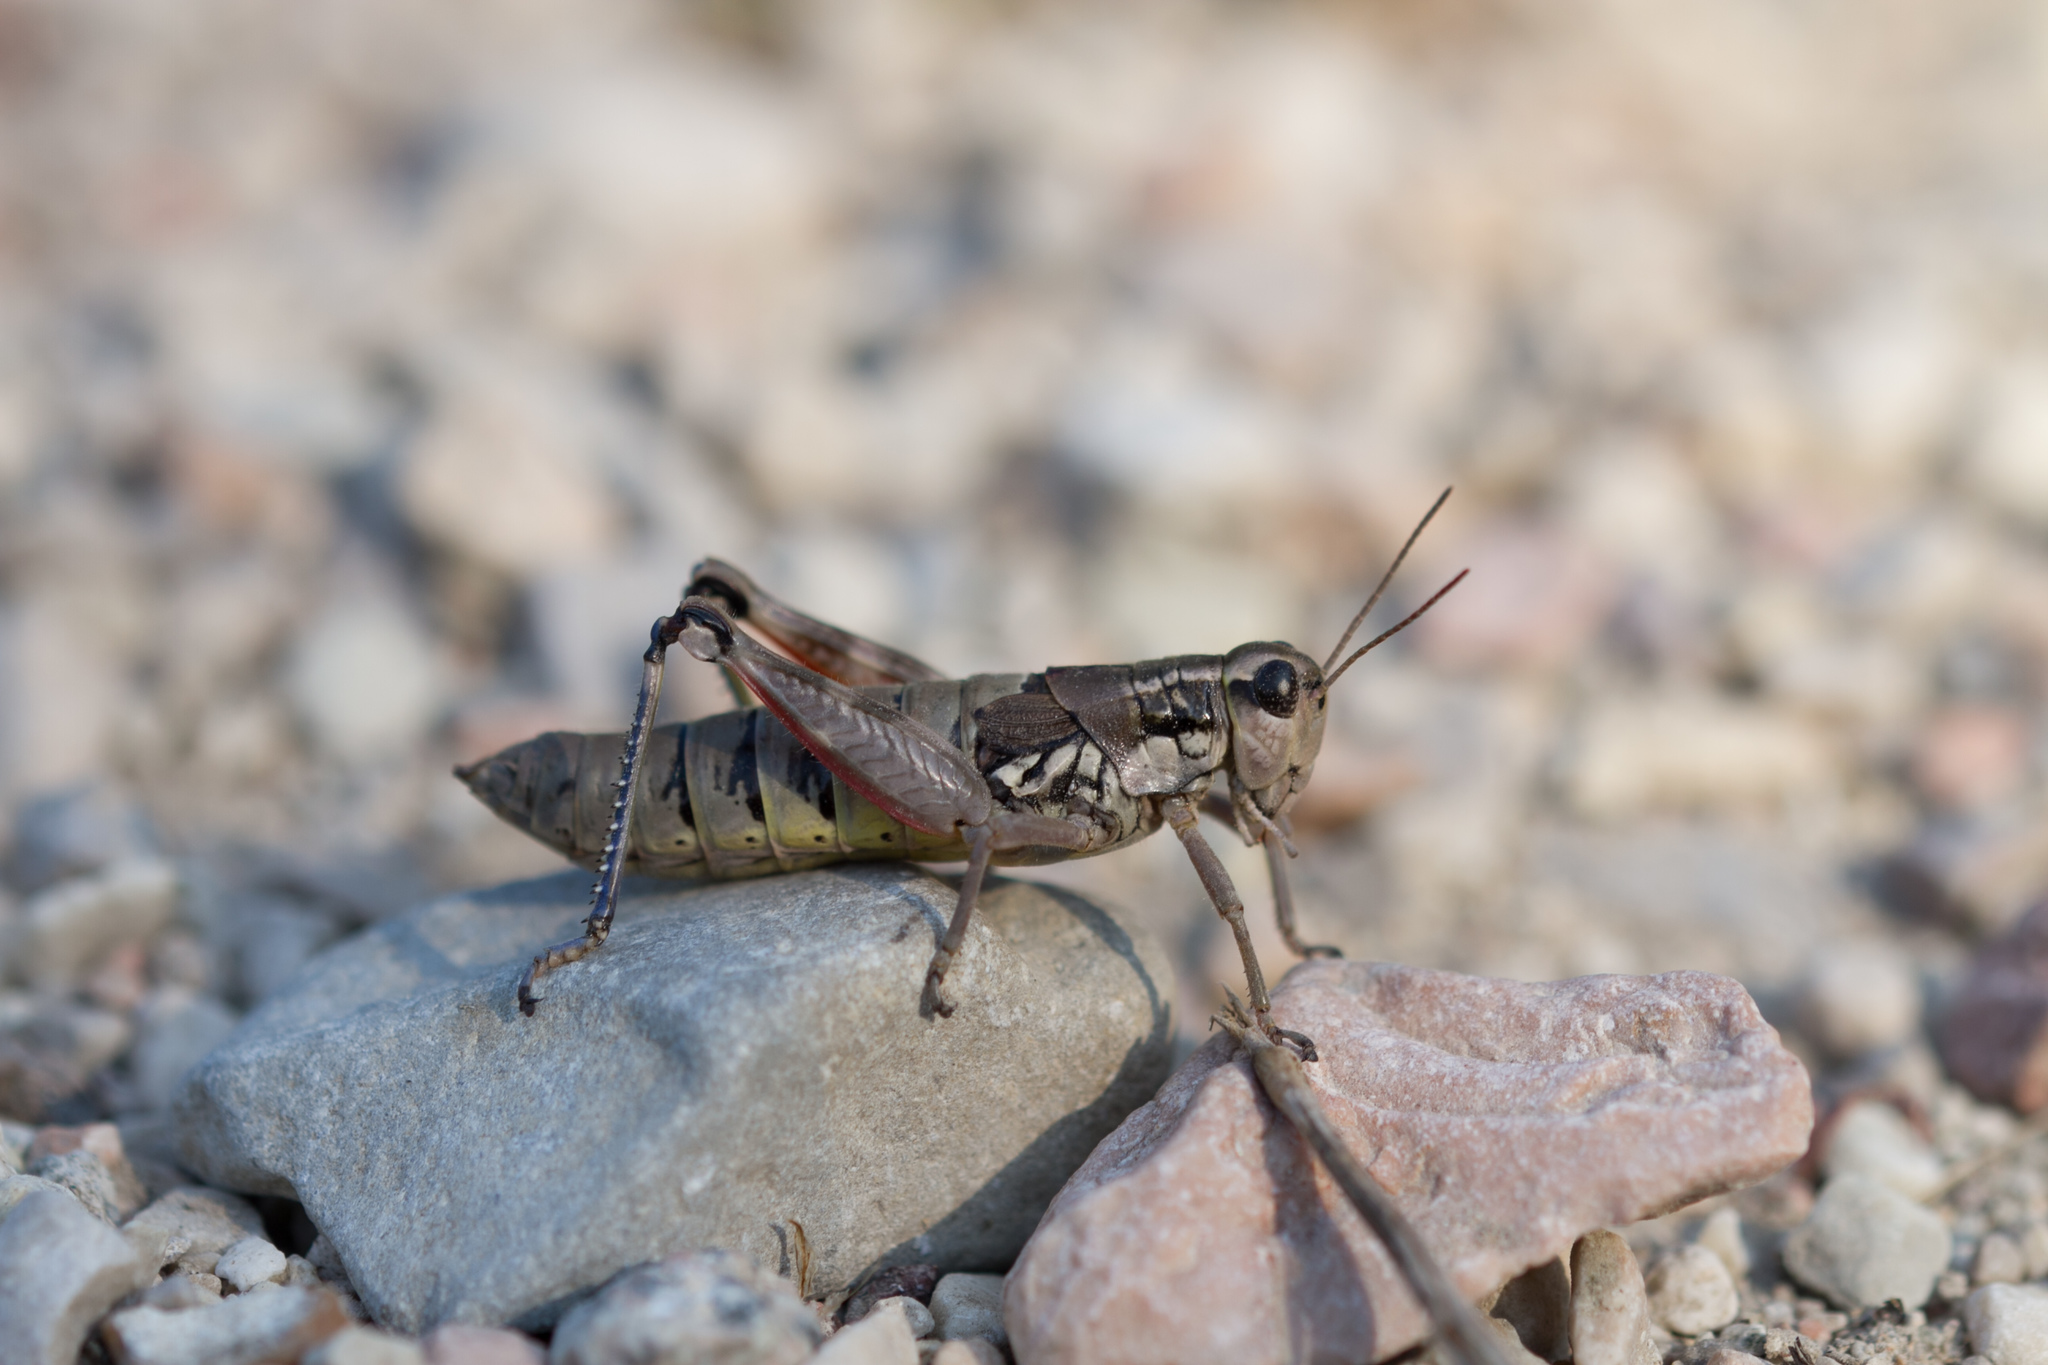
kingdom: Animalia
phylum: Arthropoda
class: Insecta
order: Orthoptera
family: Acrididae
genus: Podisma
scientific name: Podisma pedestris
